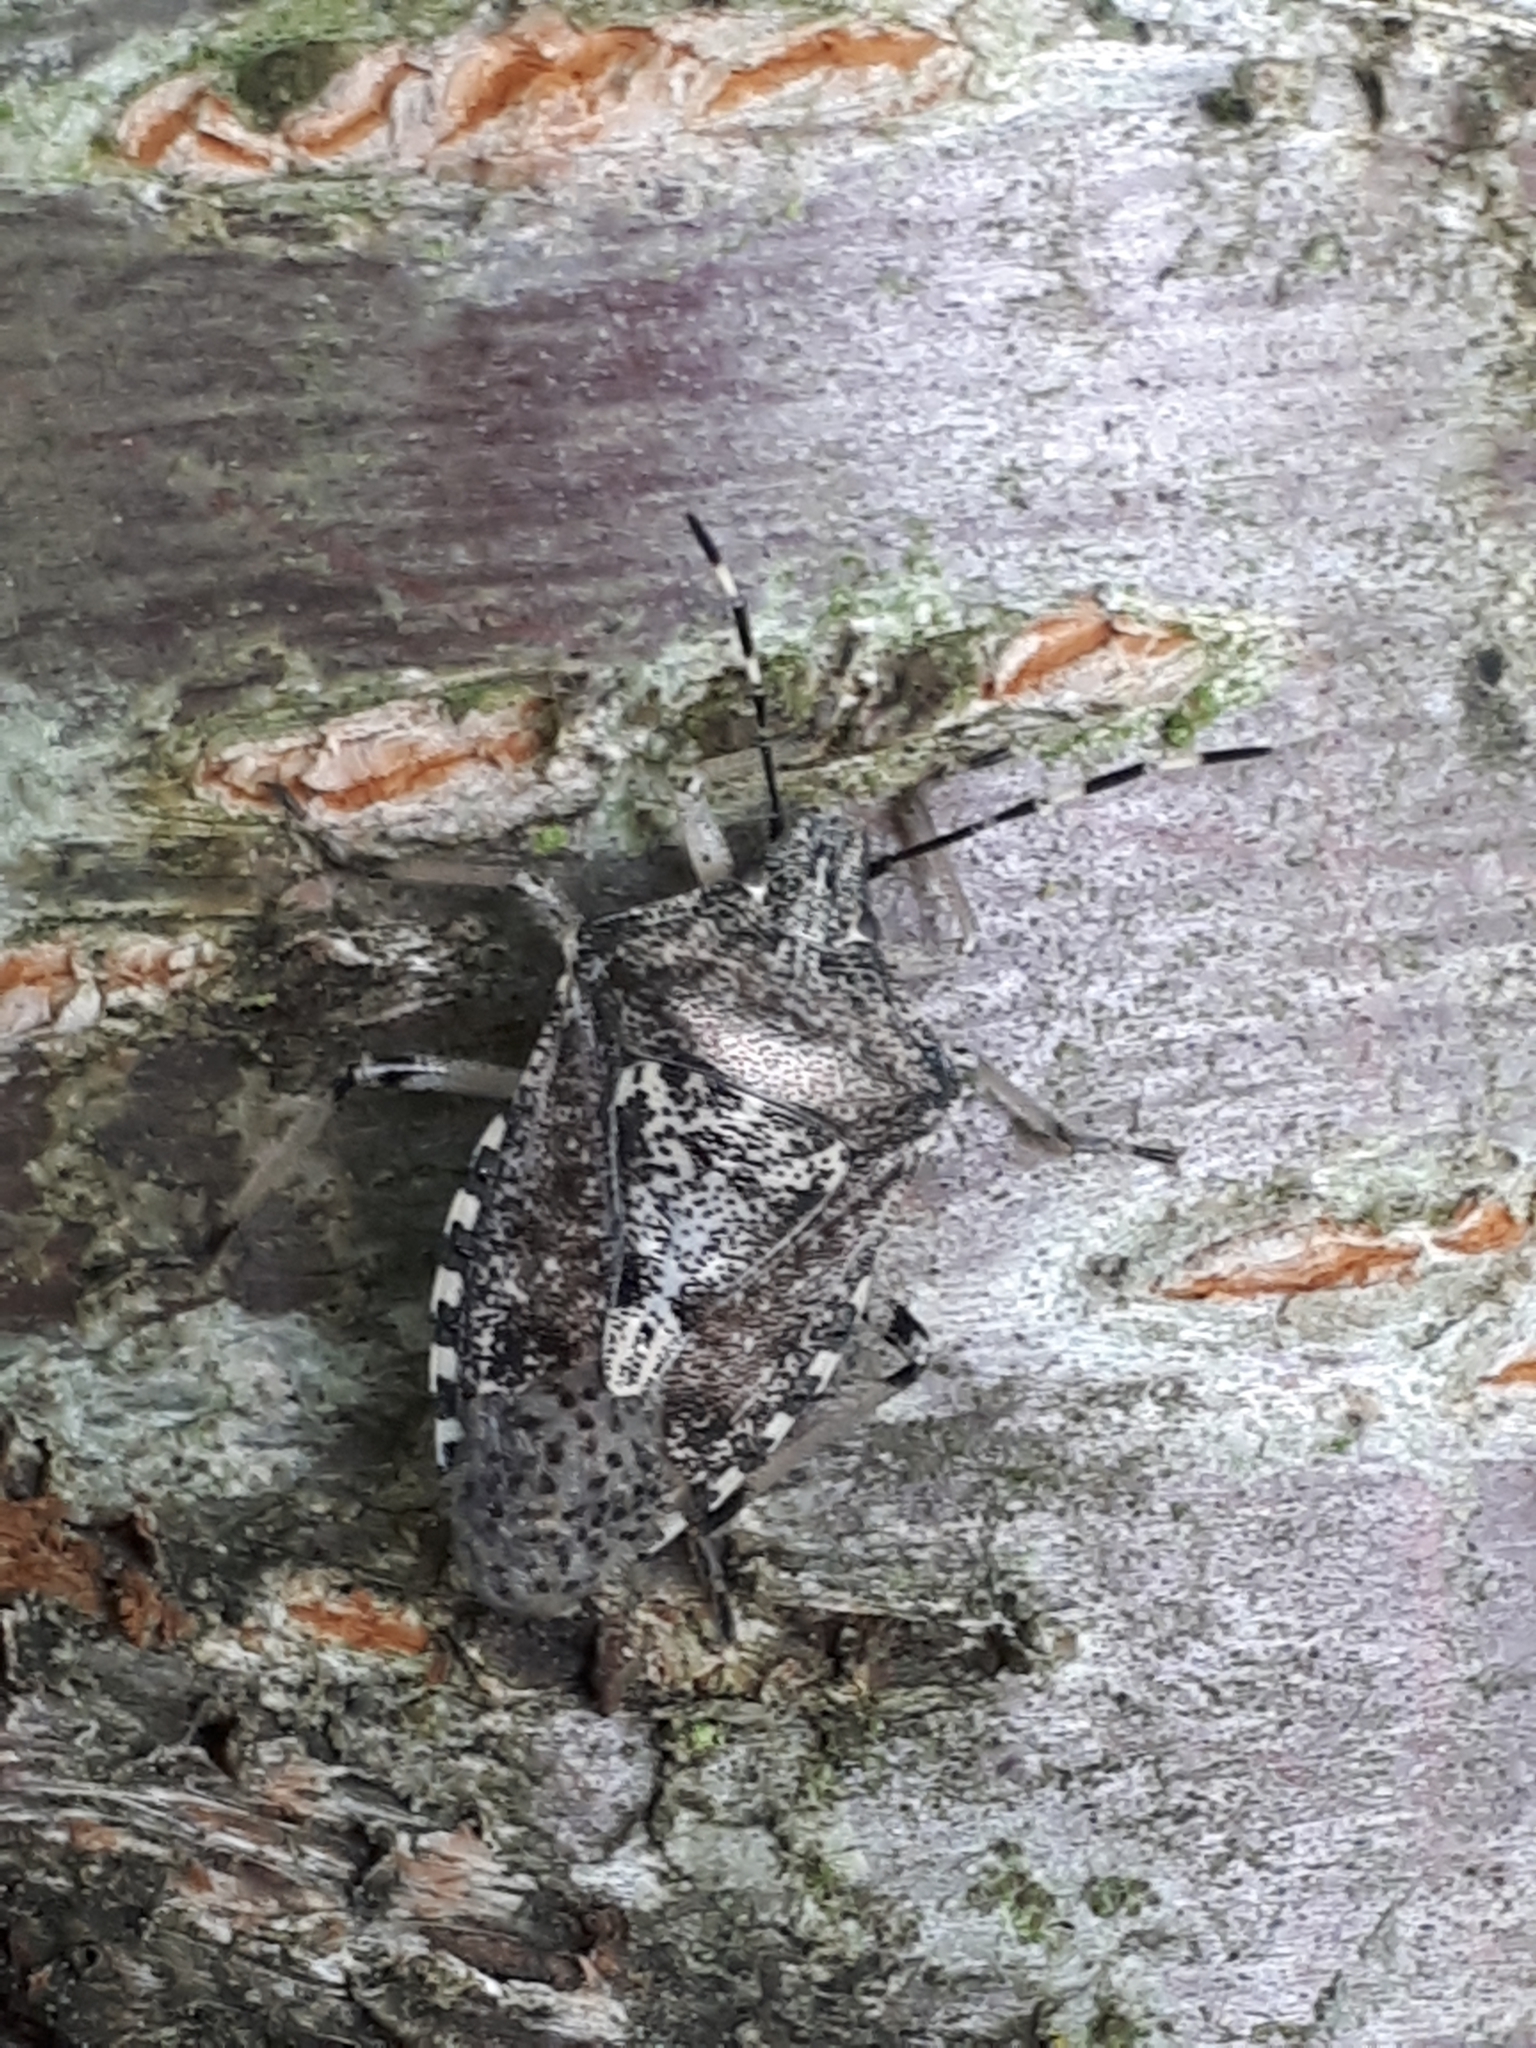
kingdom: Animalia
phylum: Arthropoda
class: Insecta
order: Hemiptera
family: Pentatomidae
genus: Rhaphigaster
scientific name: Rhaphigaster nebulosa
